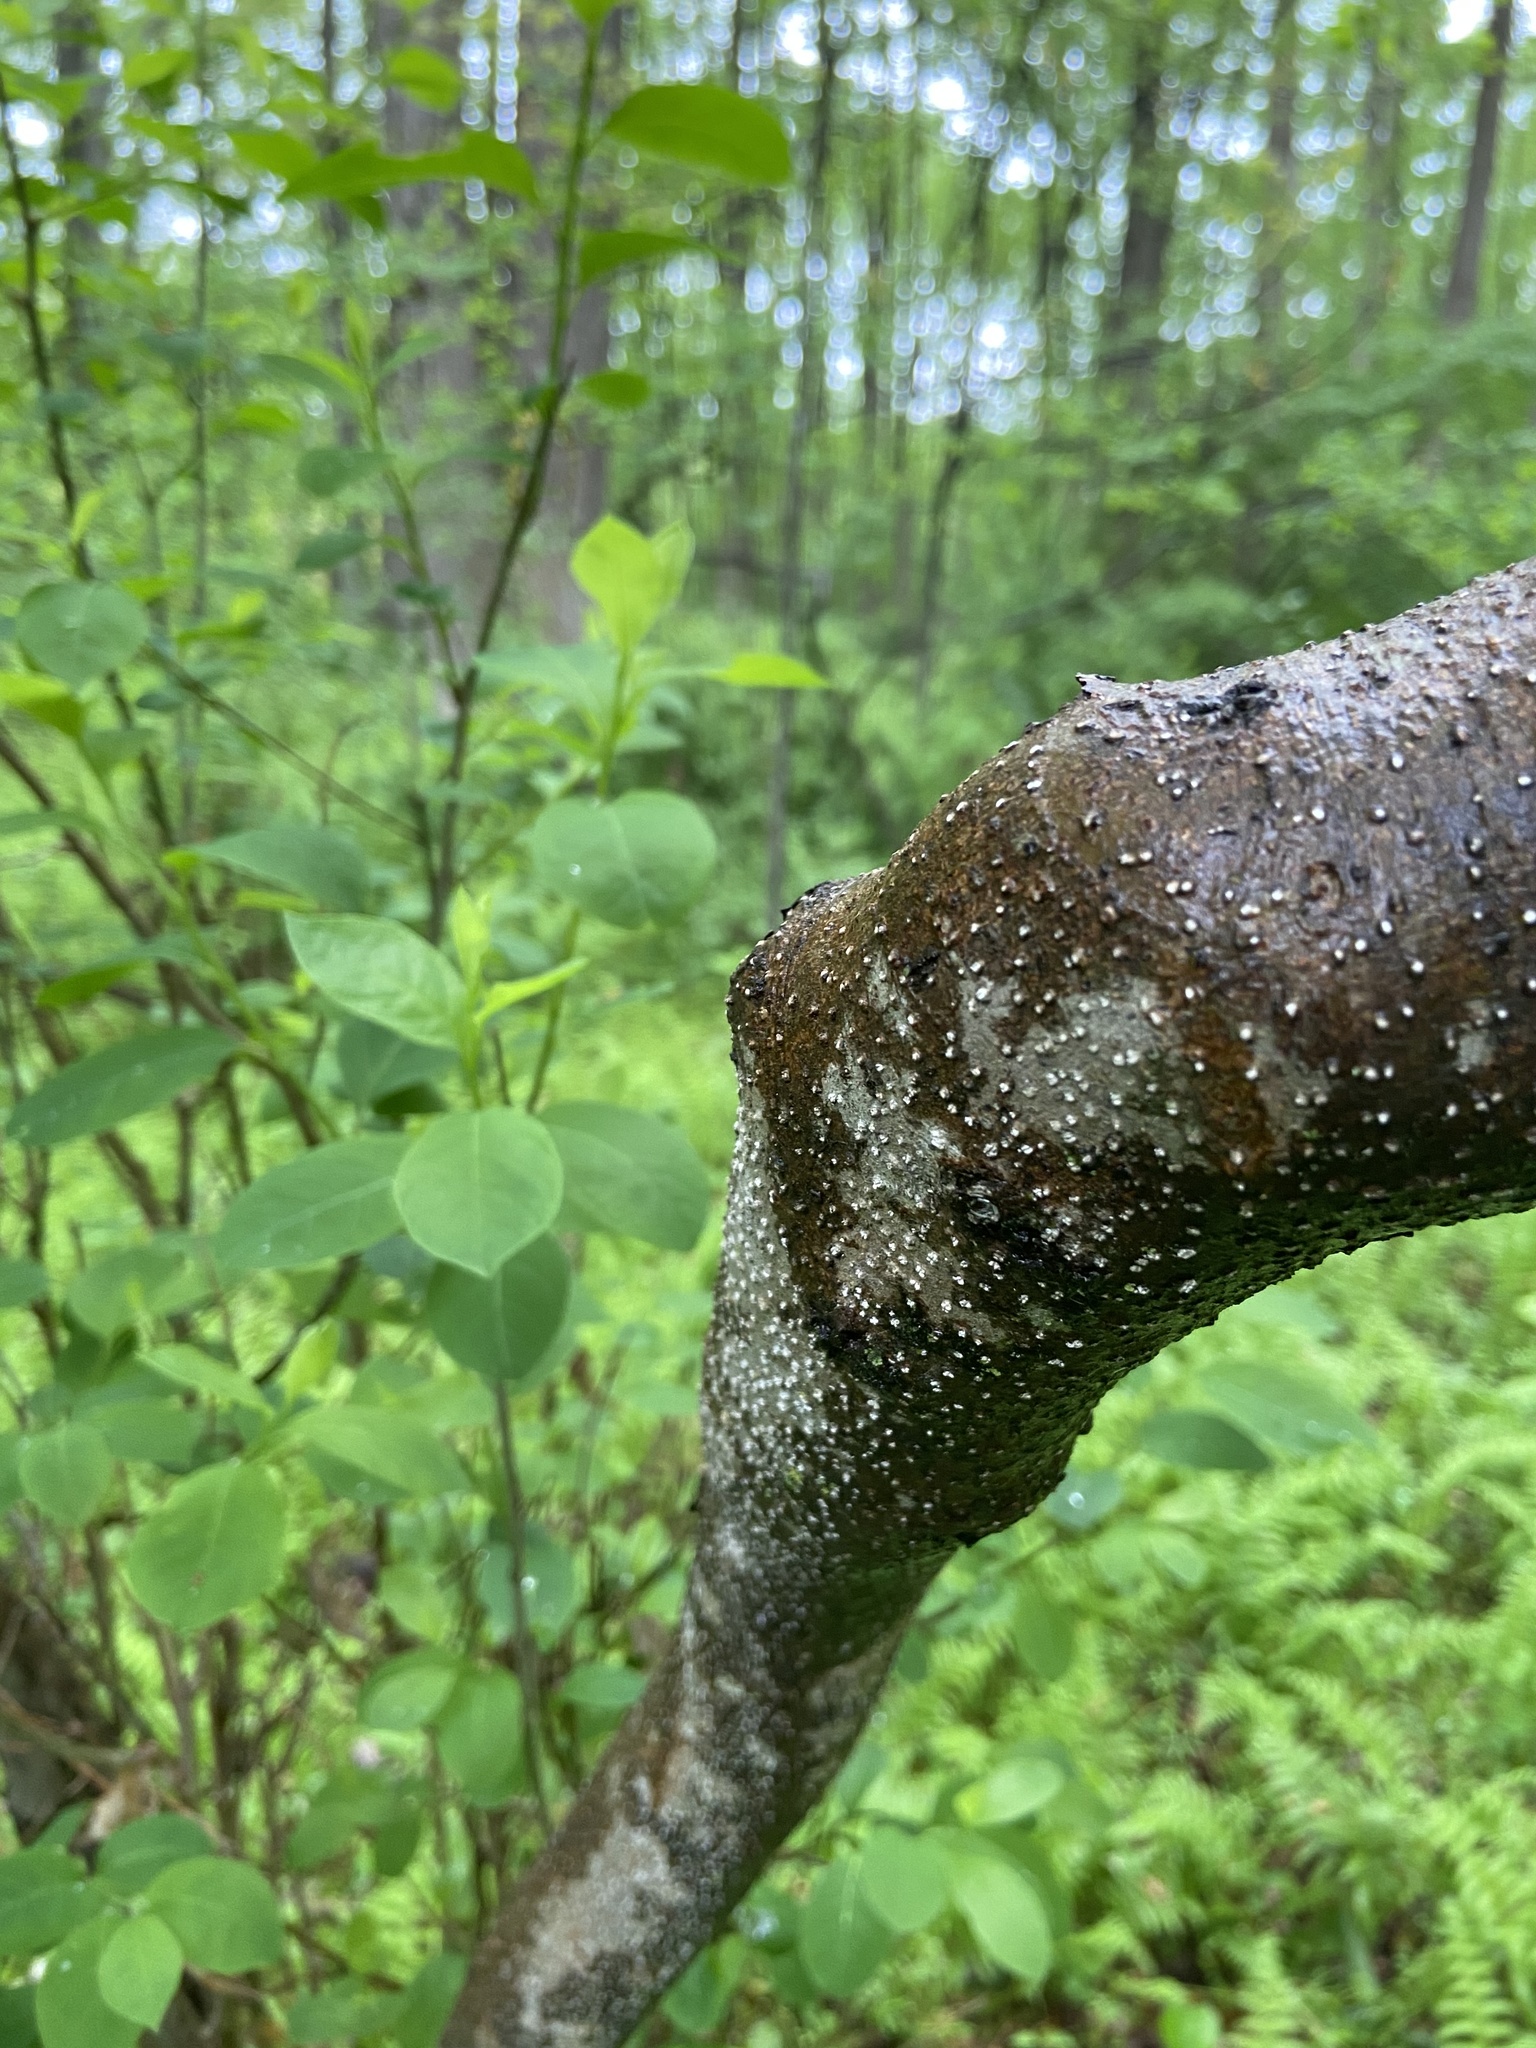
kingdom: Plantae
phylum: Tracheophyta
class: Magnoliopsida
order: Laurales
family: Lauraceae
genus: Lindera
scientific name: Lindera benzoin
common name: Spicebush
